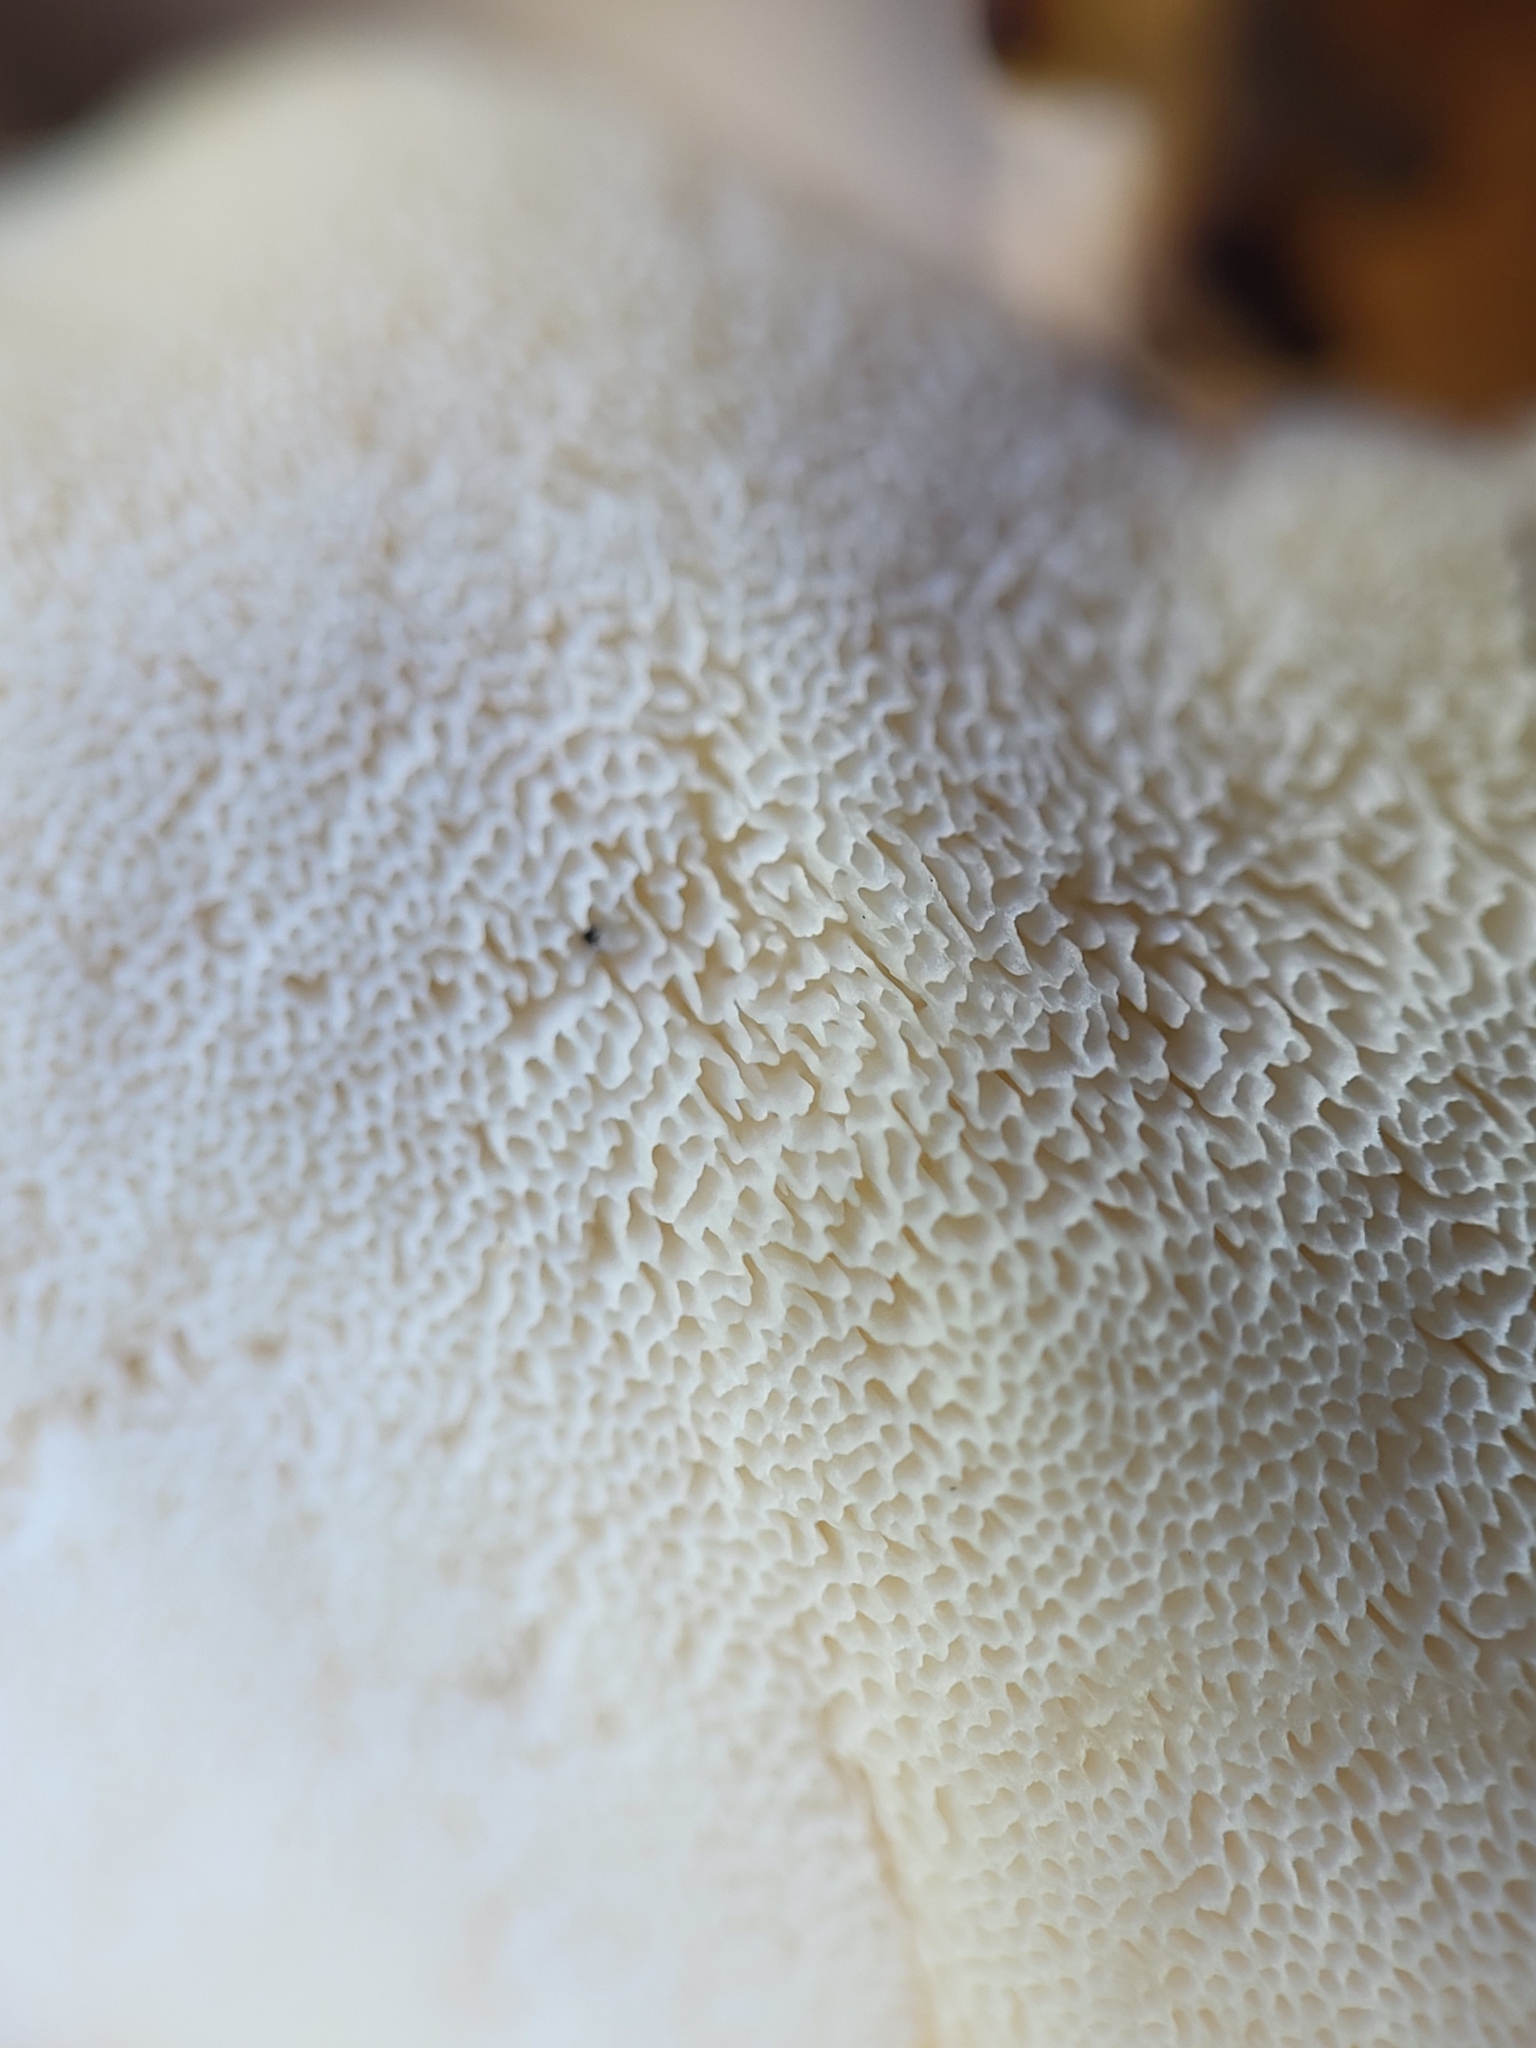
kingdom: Fungi
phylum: Basidiomycota
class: Agaricomycetes
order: Polyporales
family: Meripilaceae
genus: Meripilus
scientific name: Meripilus sumstinei
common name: Black-staining polypore
